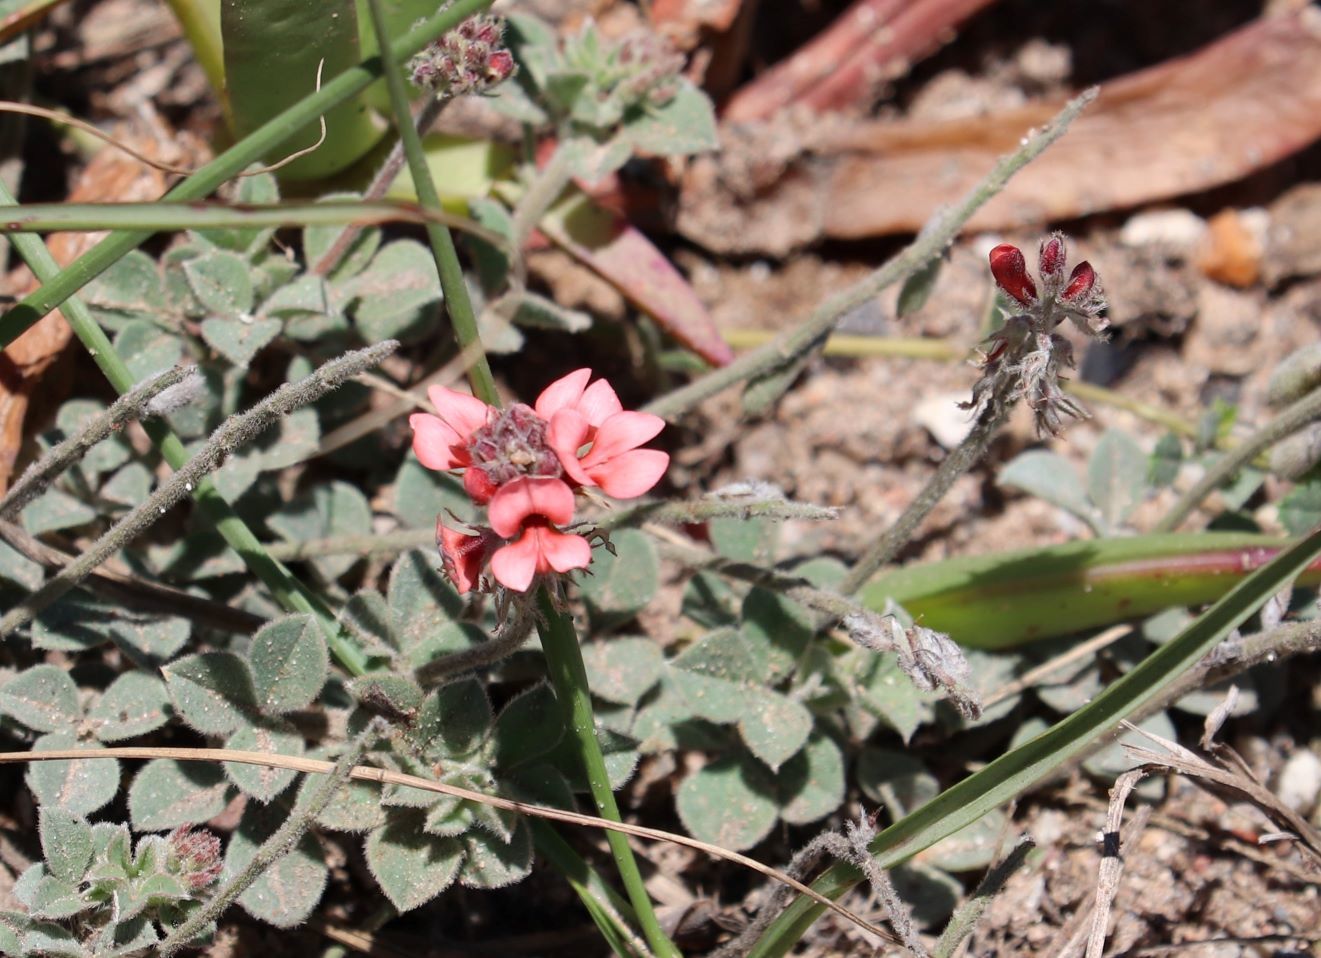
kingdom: Plantae
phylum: Tracheophyta
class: Magnoliopsida
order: Fabales
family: Fabaceae
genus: Indigofera
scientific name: Indigofera tomentosa
